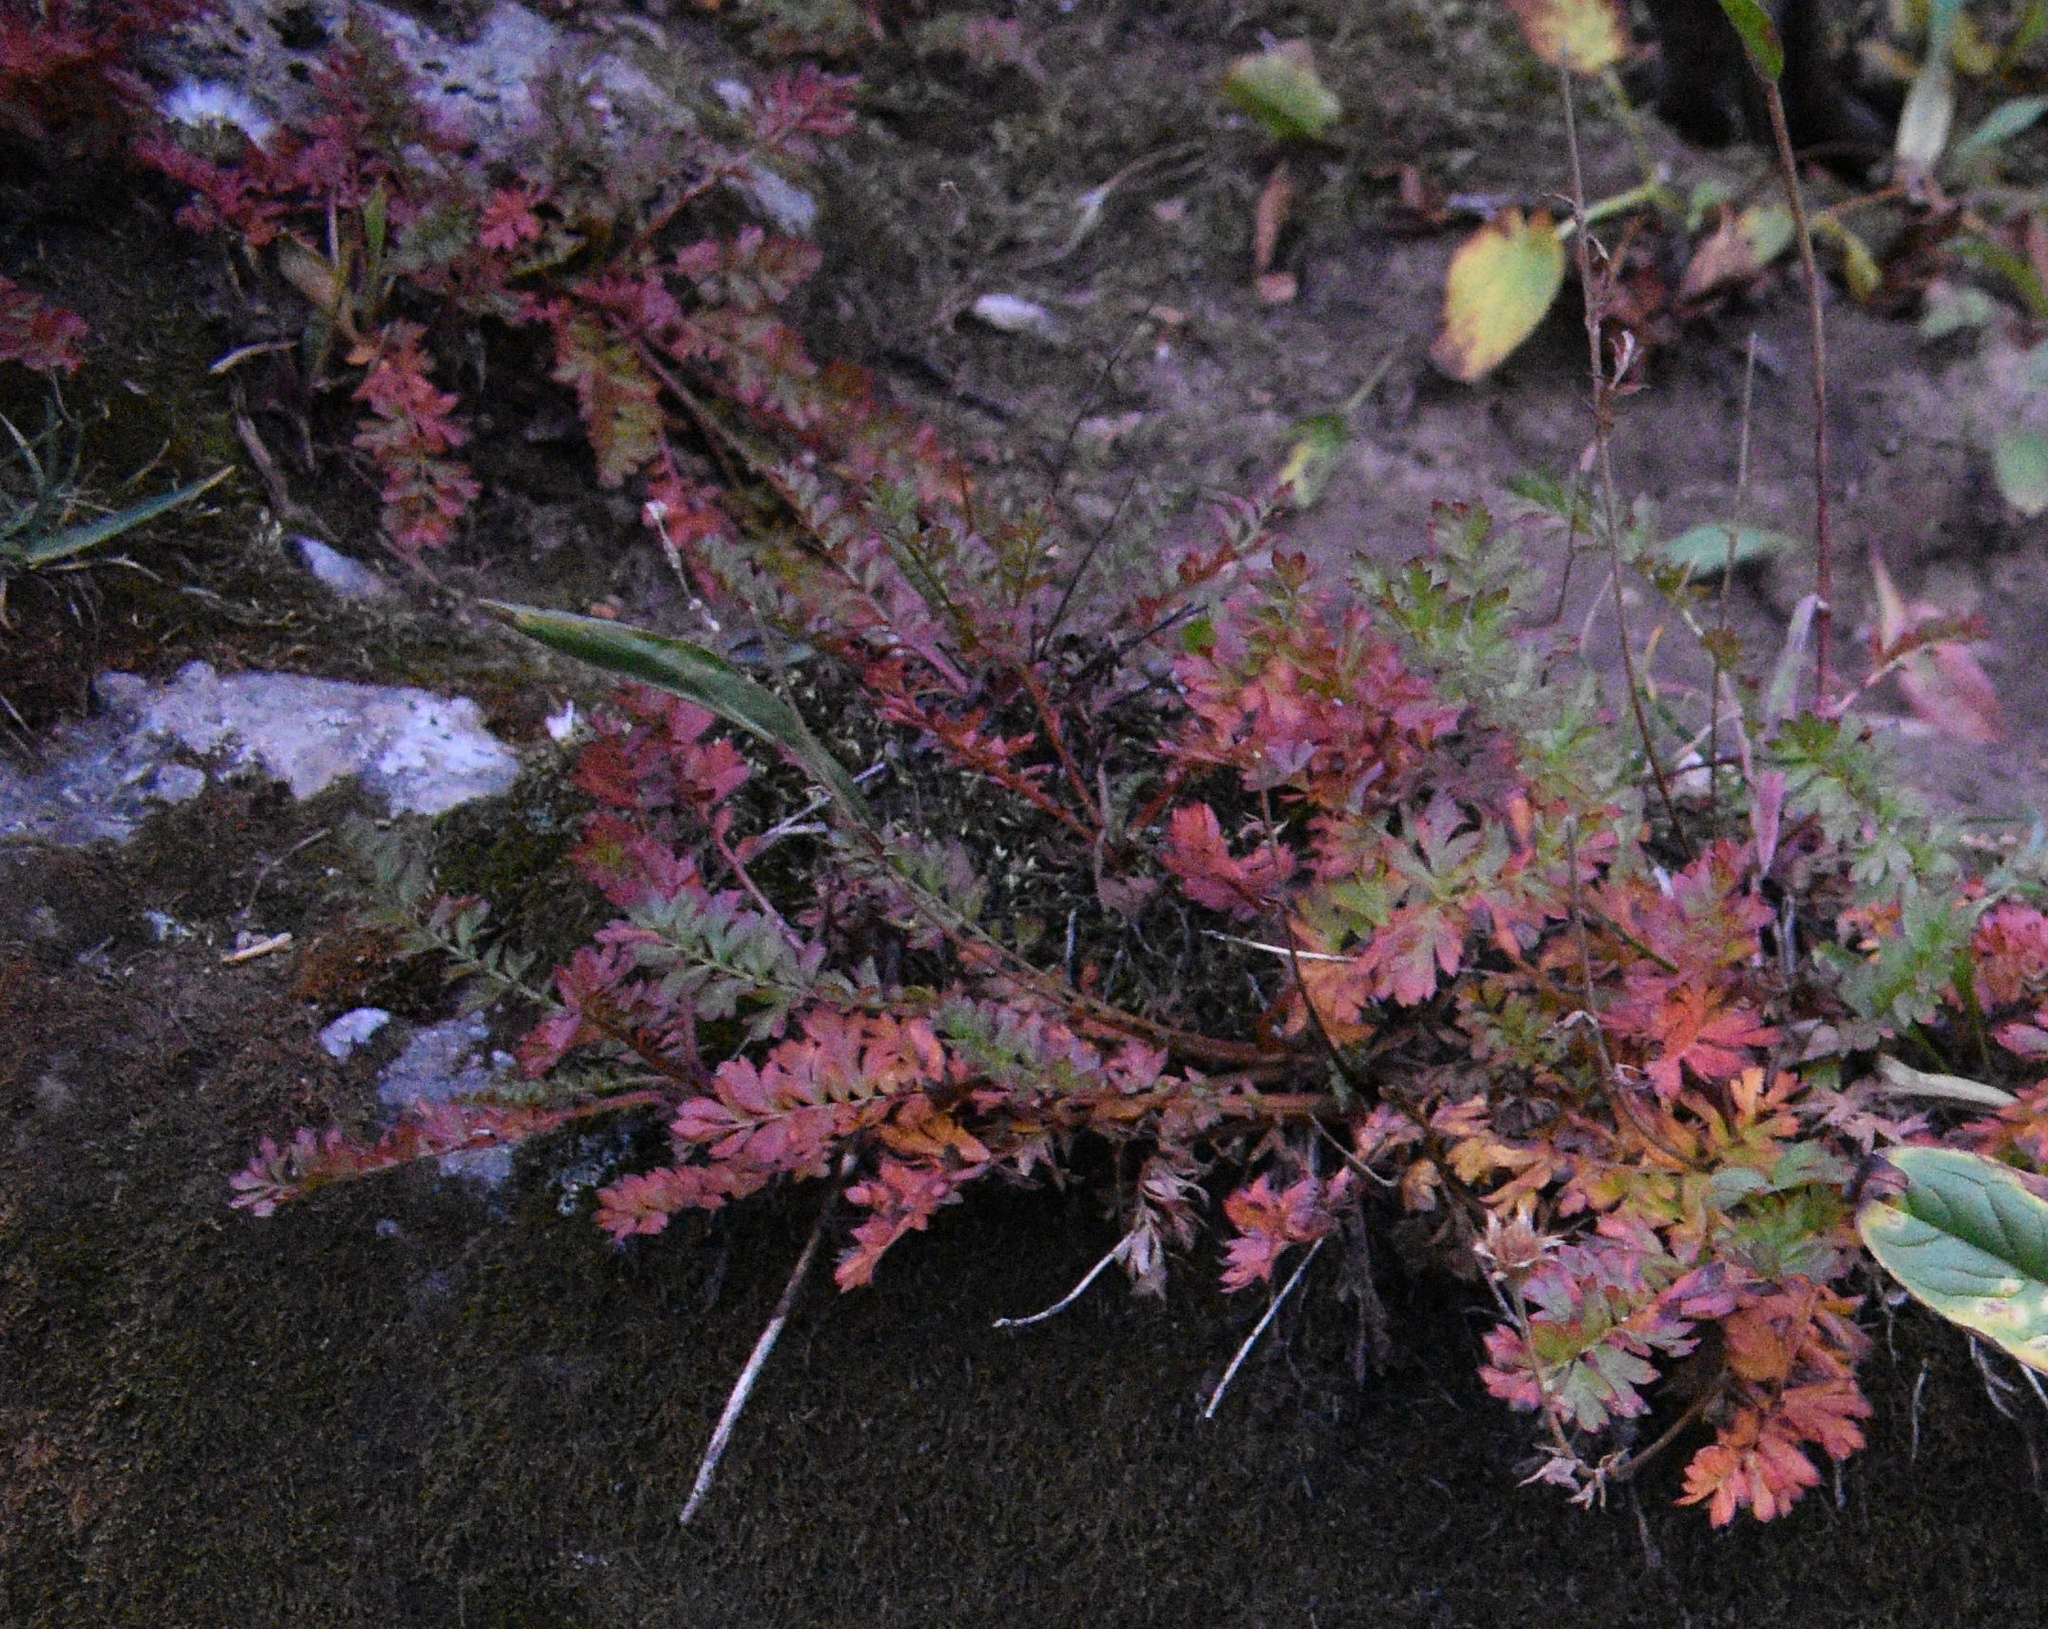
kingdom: Plantae
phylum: Tracheophyta
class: Magnoliopsida
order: Rosales
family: Rosaceae
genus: Geum
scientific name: Geum rossii
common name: Alpine avens
